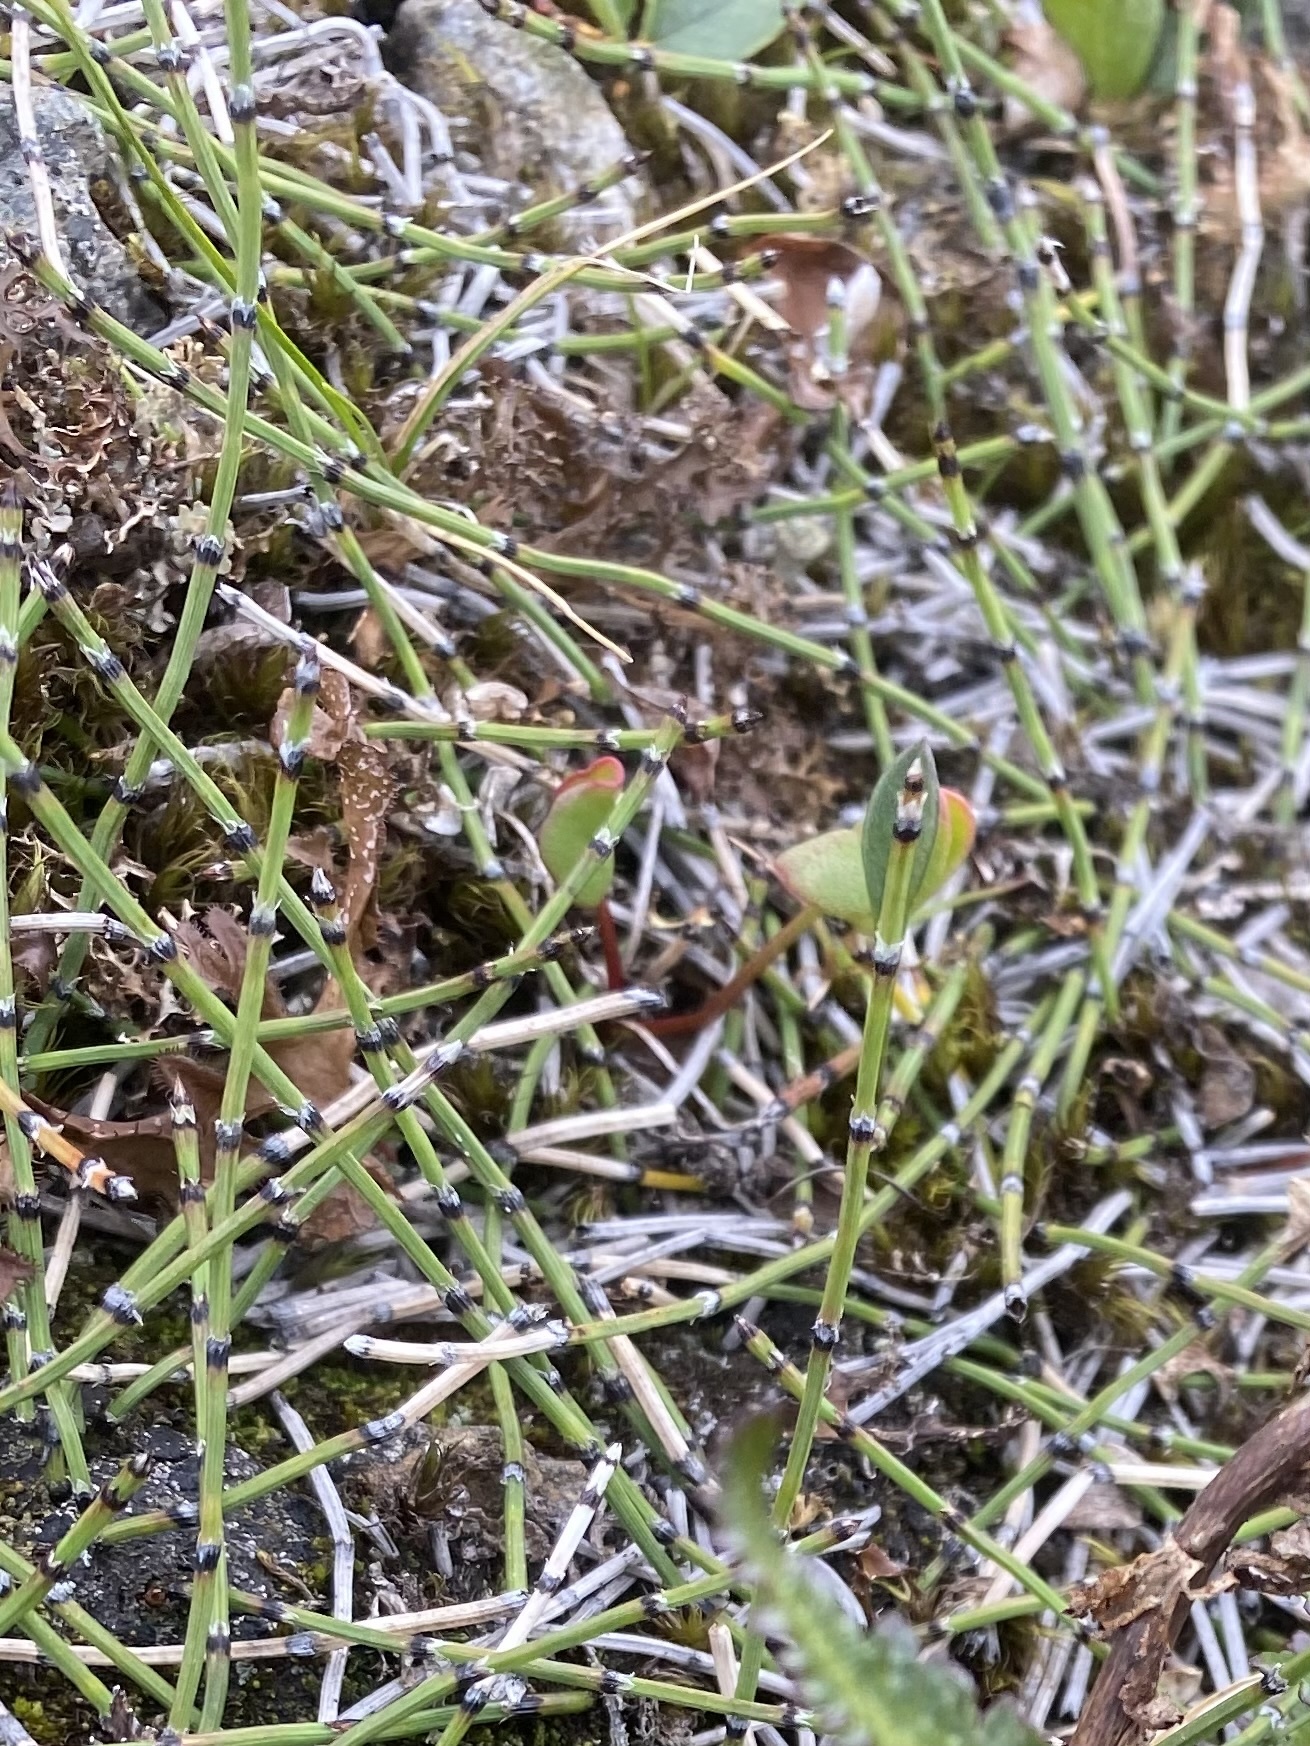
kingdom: Plantae
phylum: Tracheophyta
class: Polypodiopsida
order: Equisetales
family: Equisetaceae
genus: Equisetum
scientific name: Equisetum variegatum
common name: Variegated horsetail
